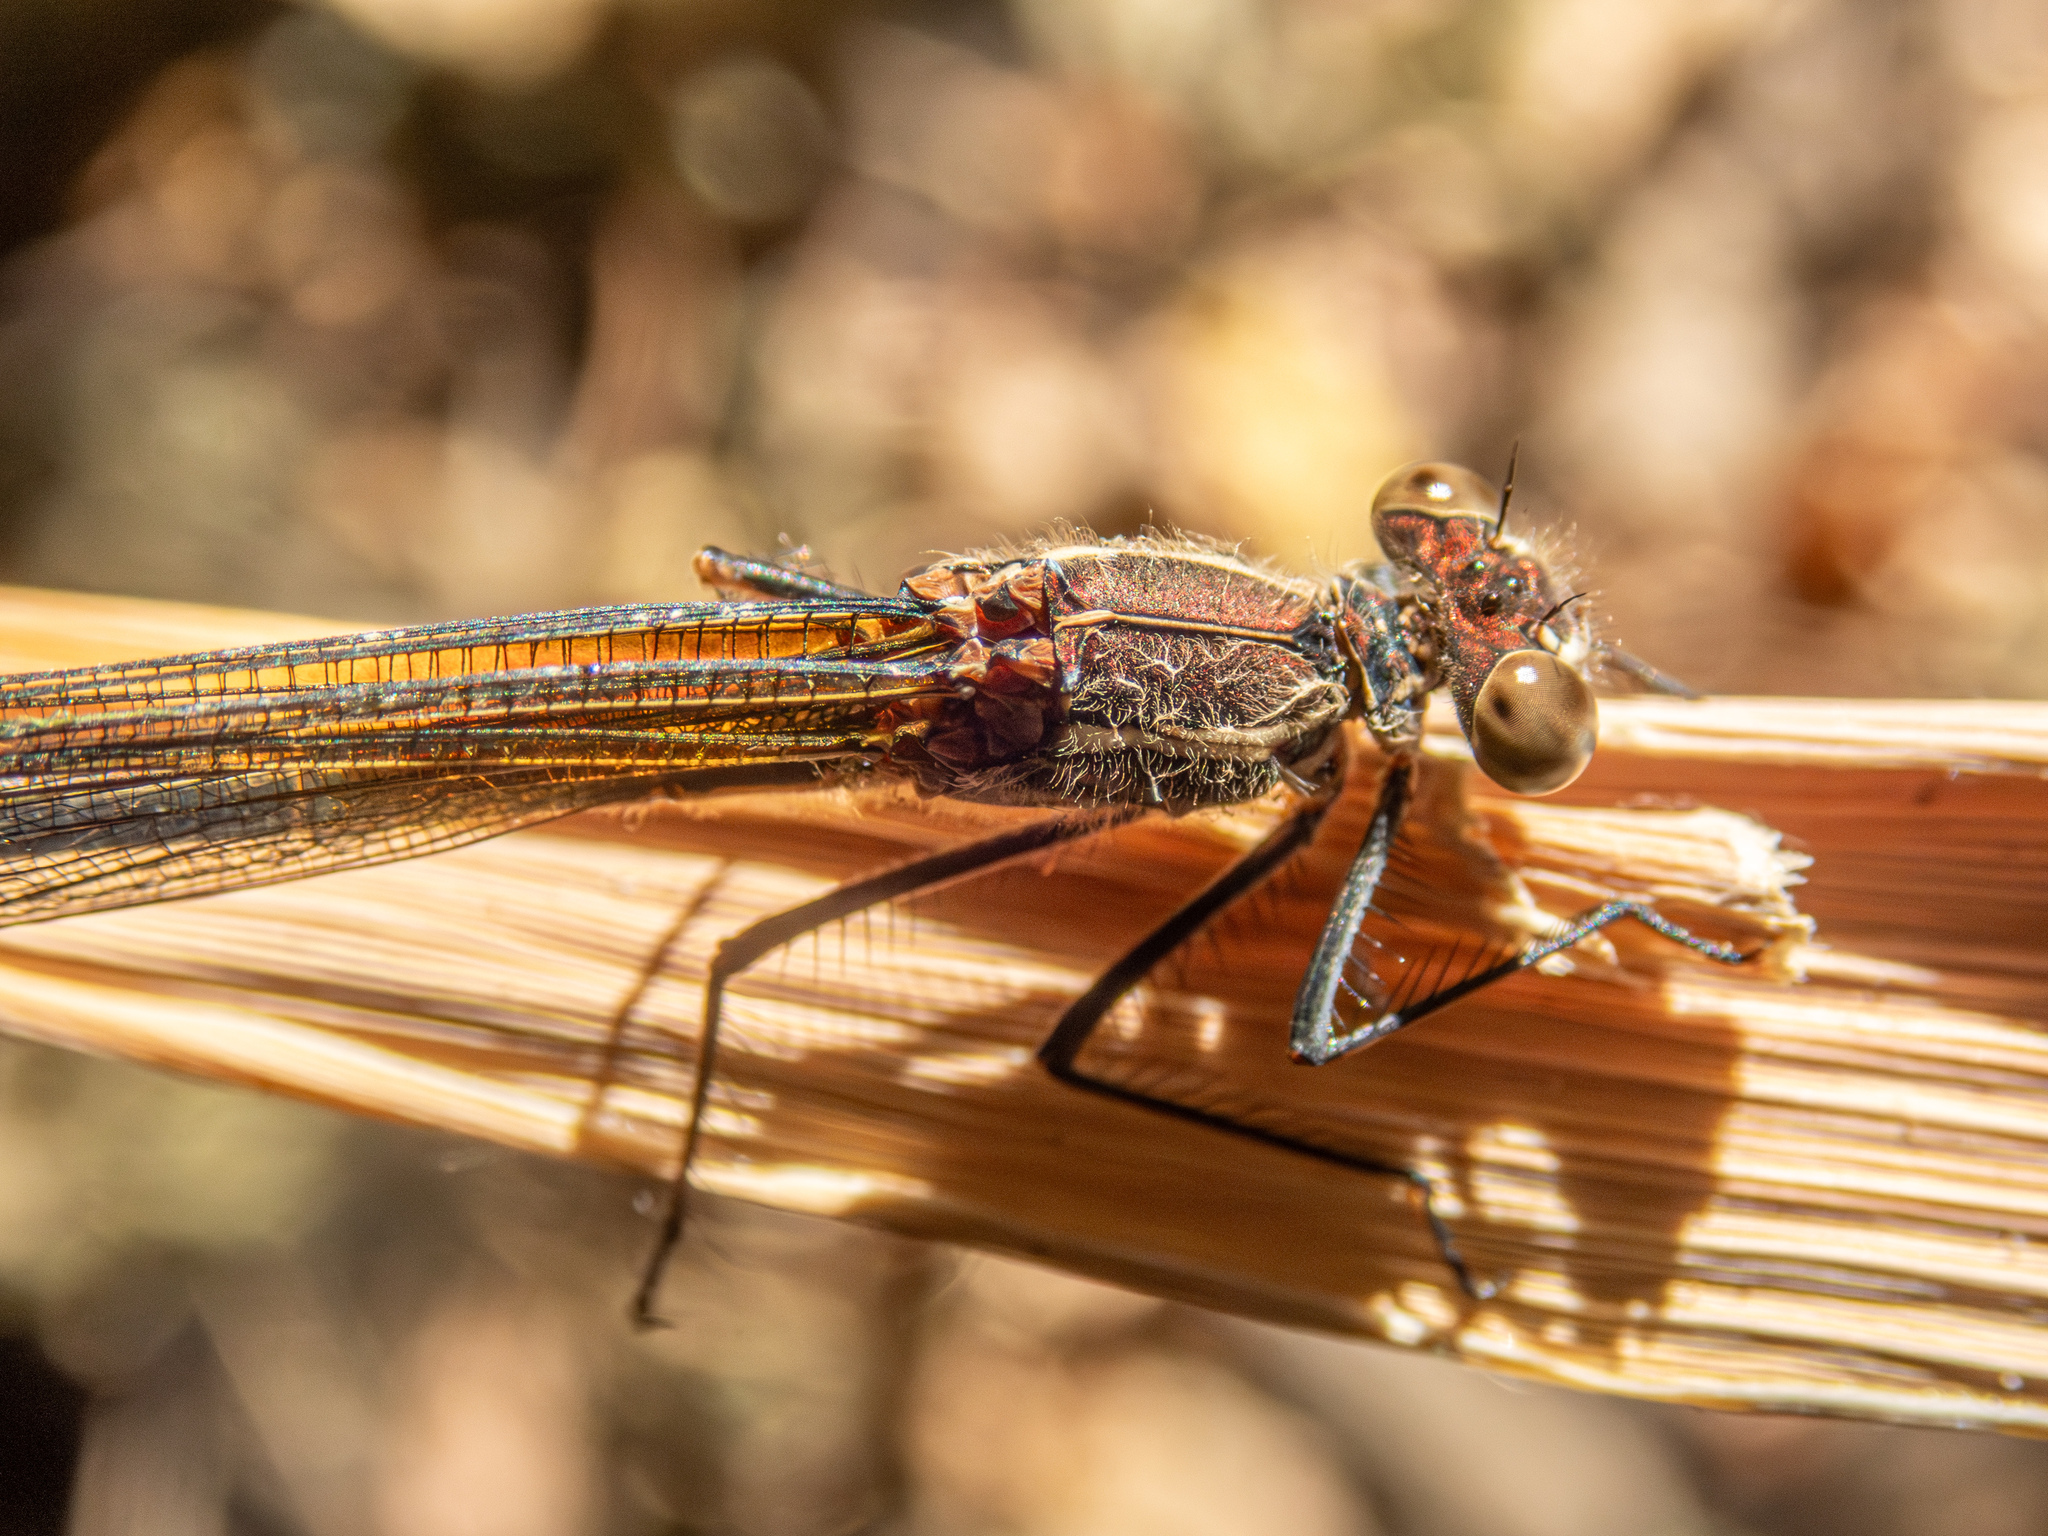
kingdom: Animalia
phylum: Arthropoda
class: Insecta
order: Odonata
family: Calopterygidae
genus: Hetaerina
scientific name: Hetaerina americana
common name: American rubyspot
